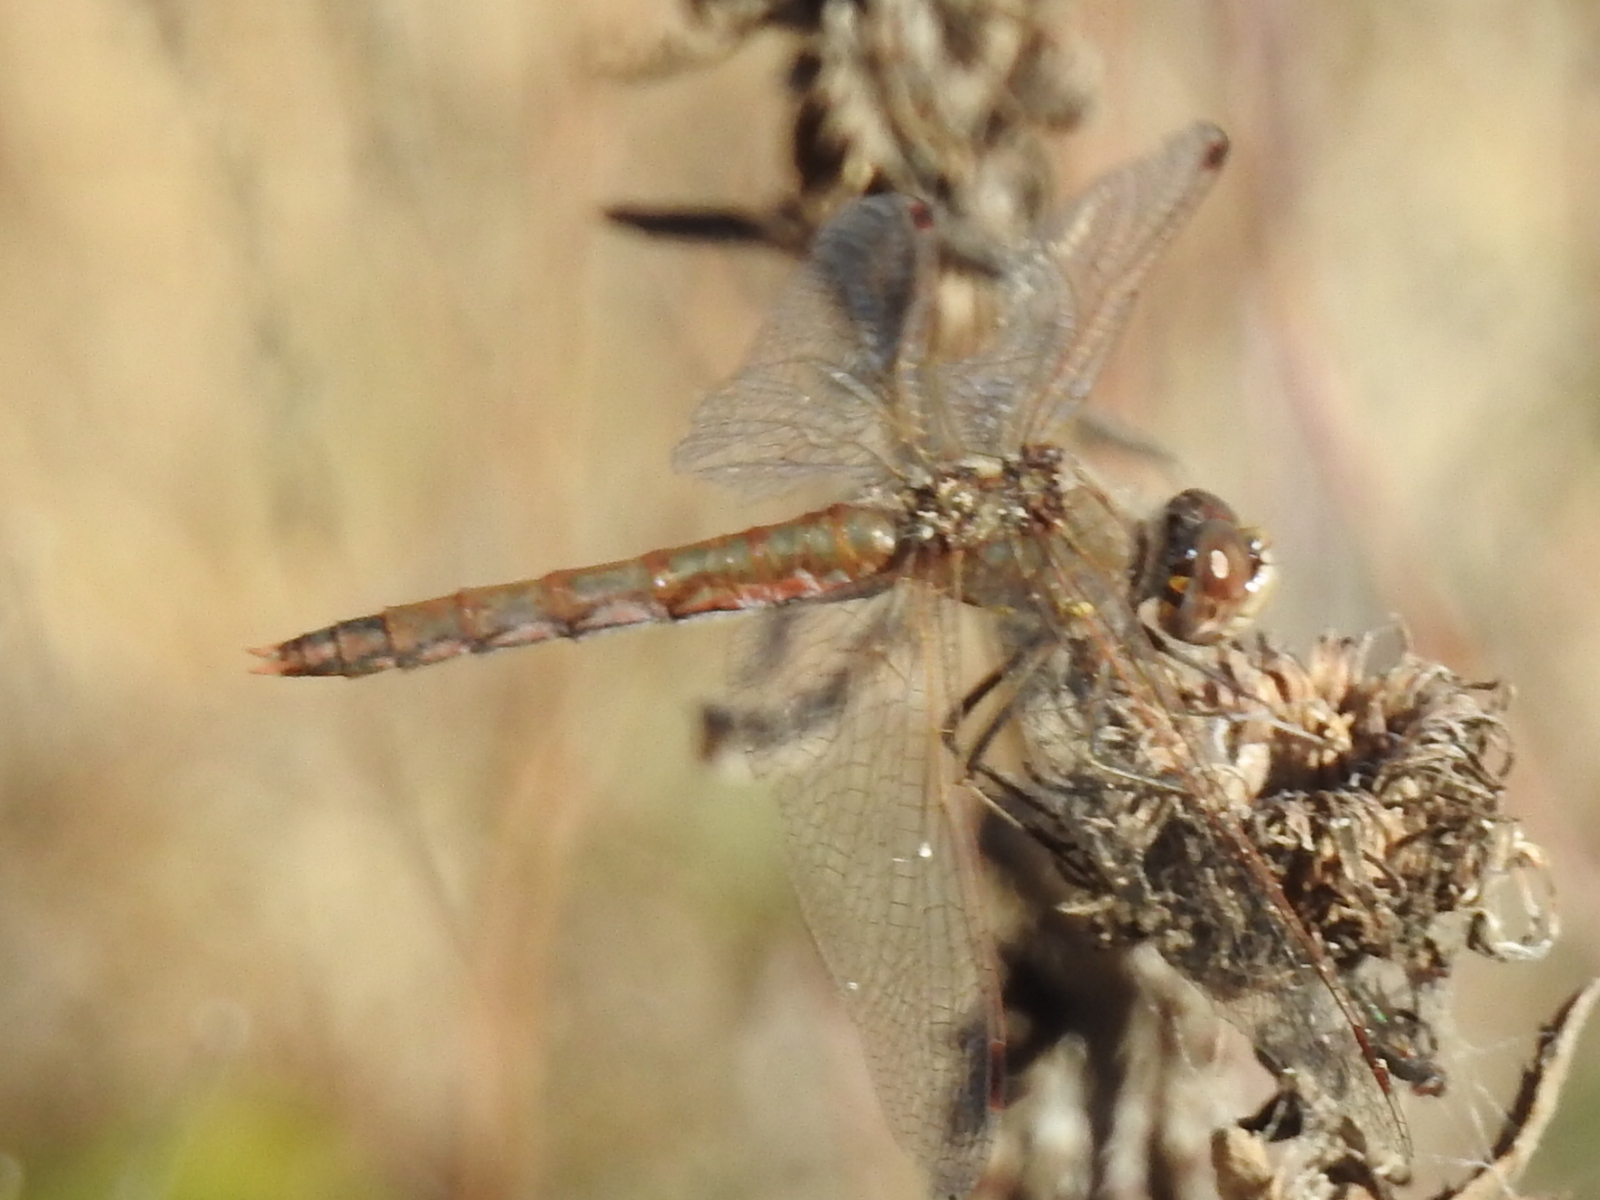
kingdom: Animalia
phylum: Arthropoda
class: Insecta
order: Odonata
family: Libellulidae
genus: Sympetrum
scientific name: Sympetrum corruptum
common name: Variegated meadowhawk
